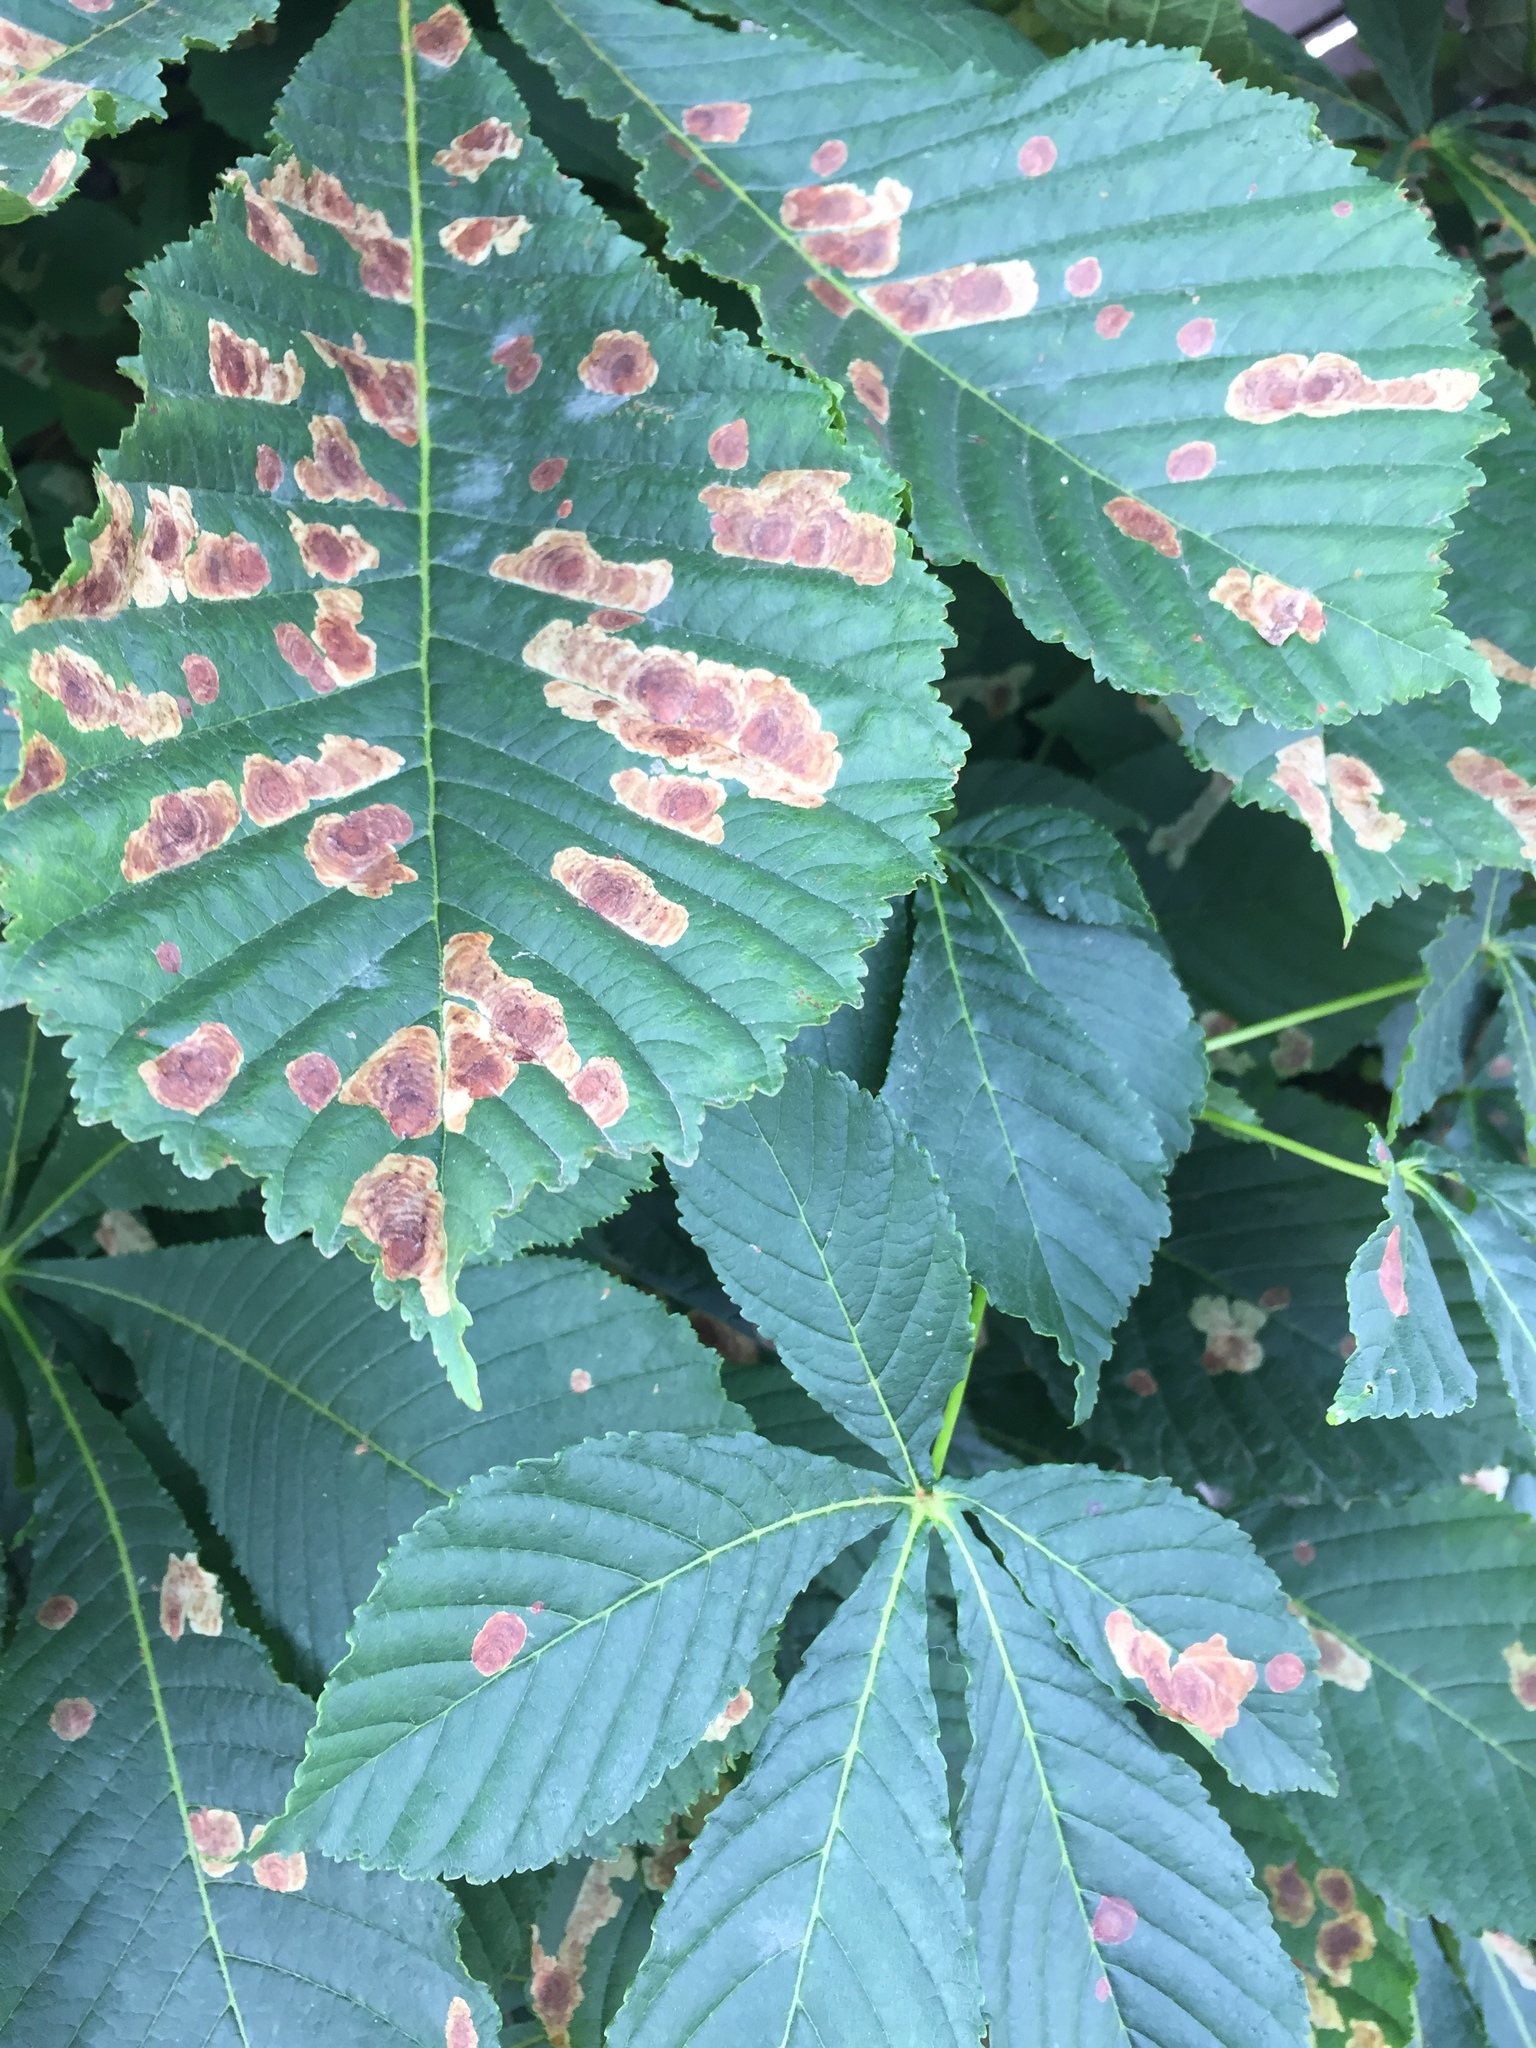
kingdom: Animalia
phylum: Arthropoda
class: Insecta
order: Lepidoptera
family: Gracillariidae
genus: Cameraria
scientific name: Cameraria ohridella
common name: Horse-chestnut leaf-miner
